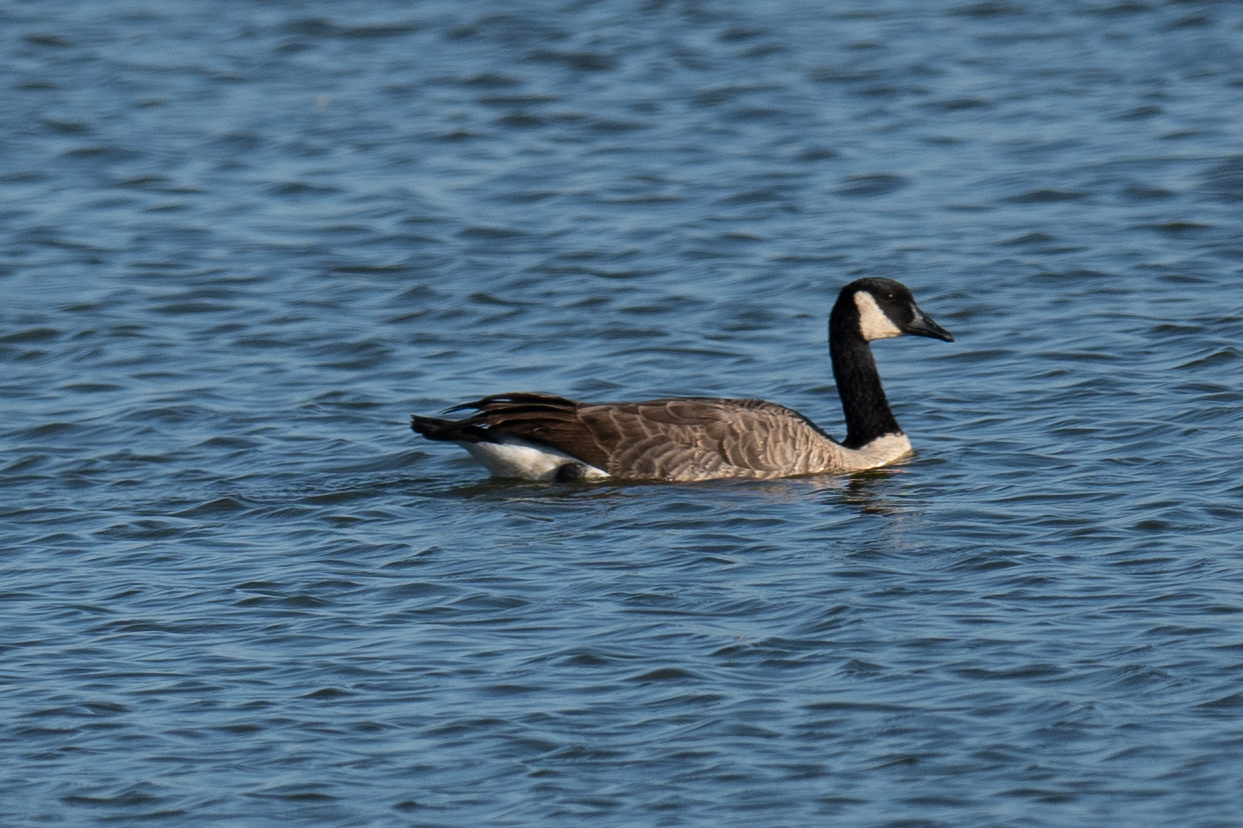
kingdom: Animalia
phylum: Chordata
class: Aves
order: Anseriformes
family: Anatidae
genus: Branta
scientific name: Branta canadensis
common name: Canada goose
